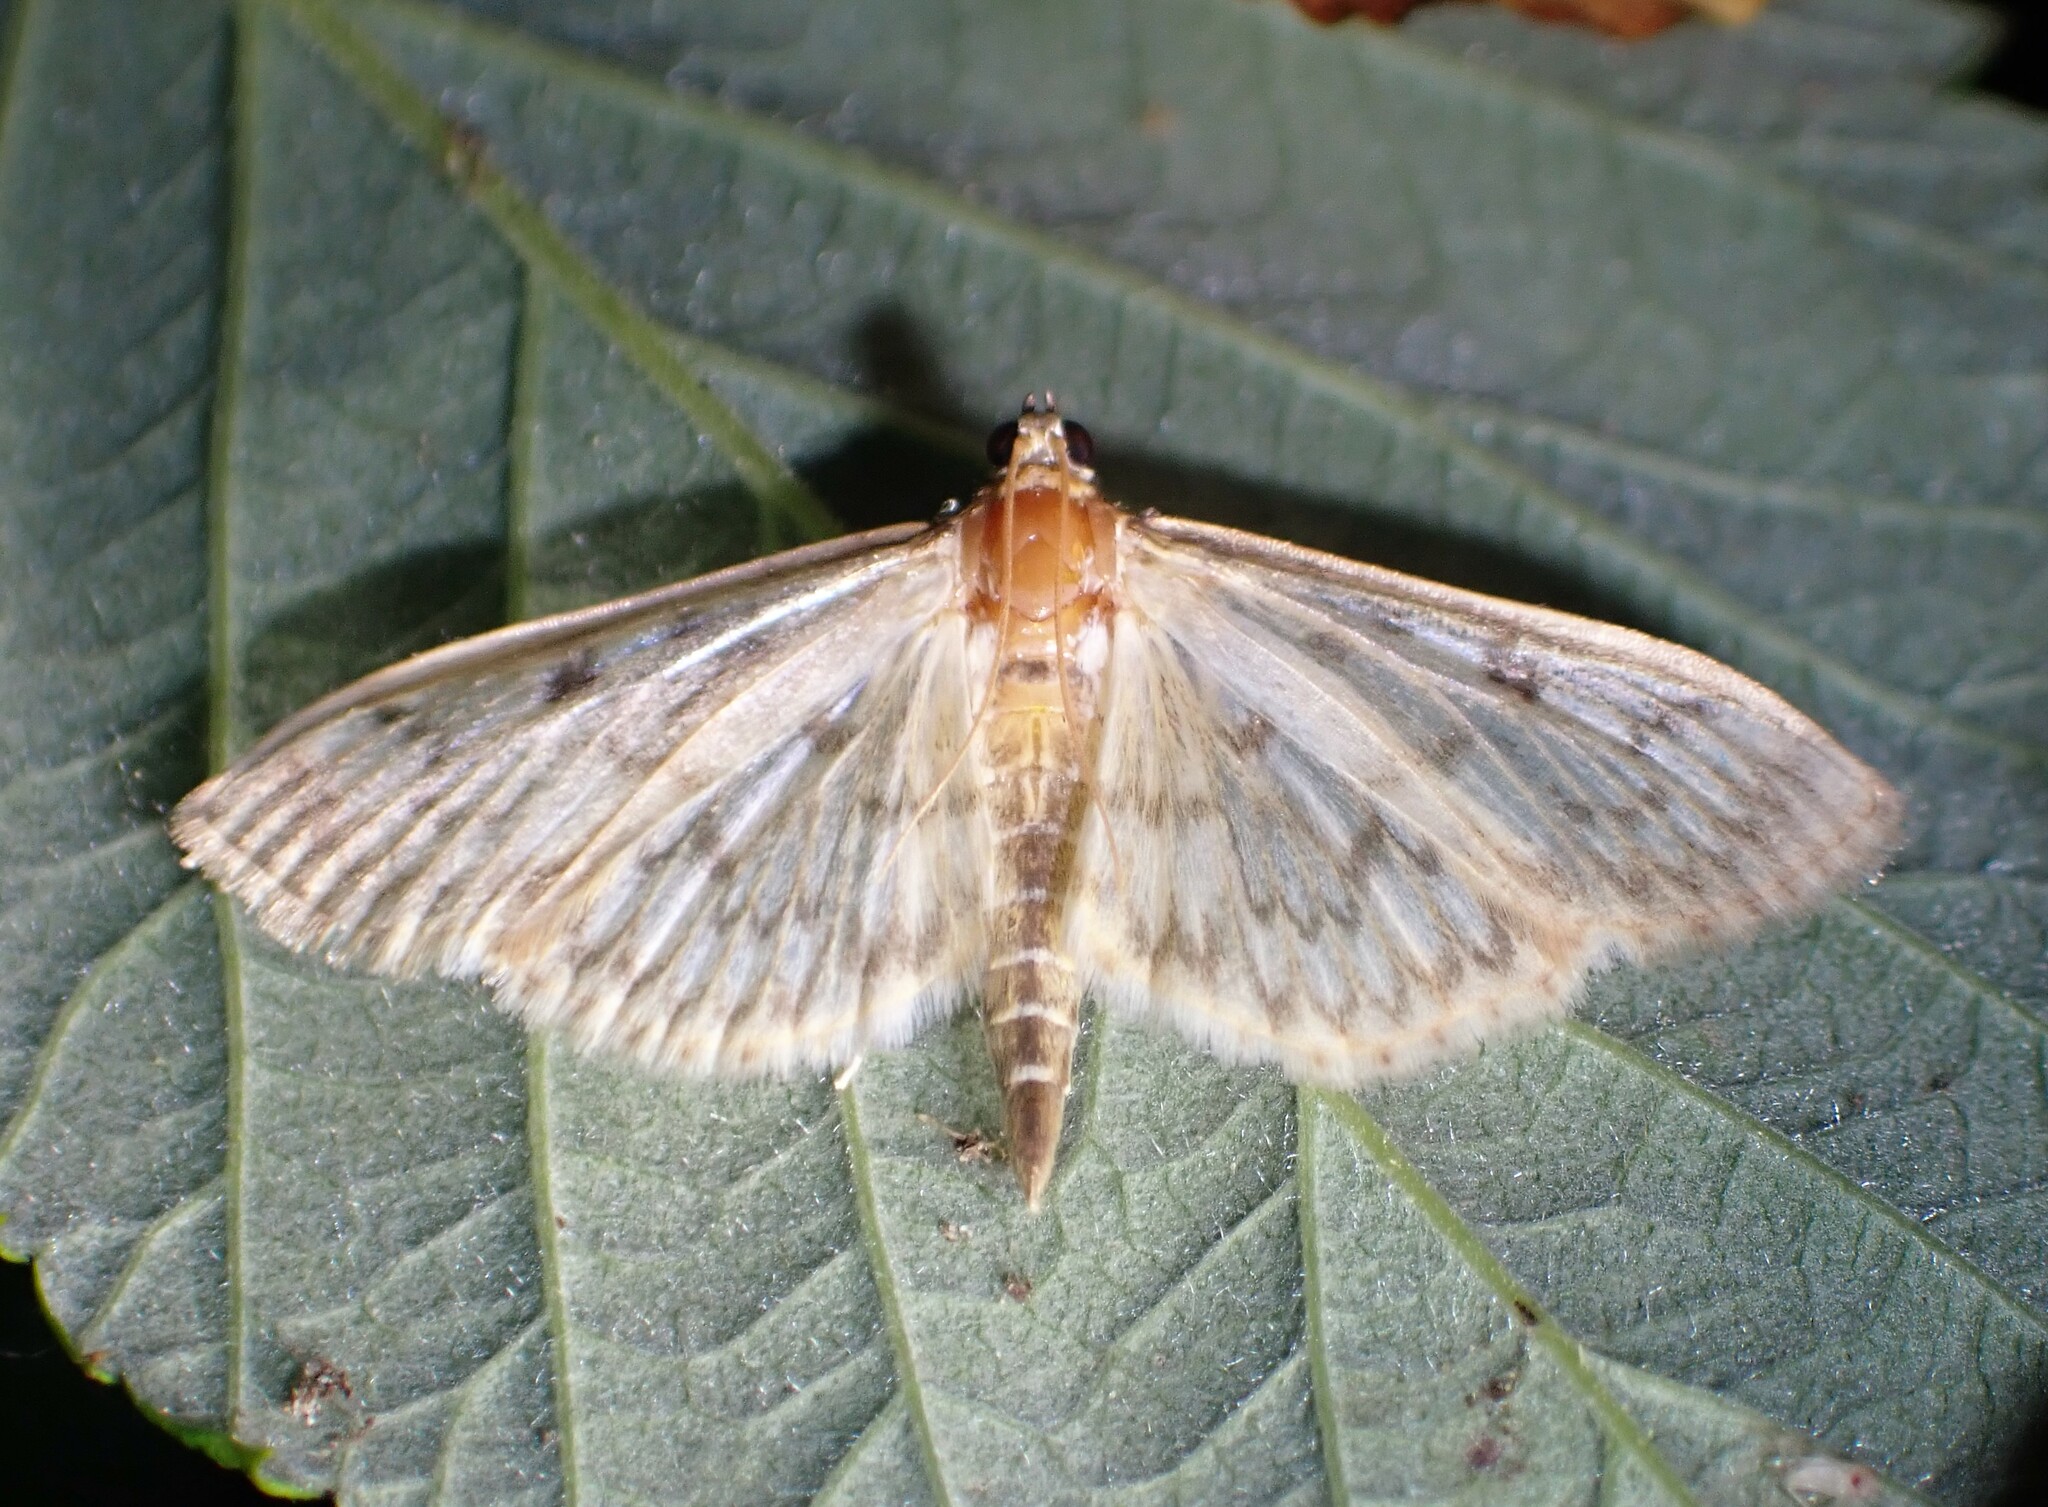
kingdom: Animalia
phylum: Arthropoda
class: Insecta
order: Lepidoptera
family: Crambidae
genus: Herpetogramma
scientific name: Herpetogramma aquilonalis
